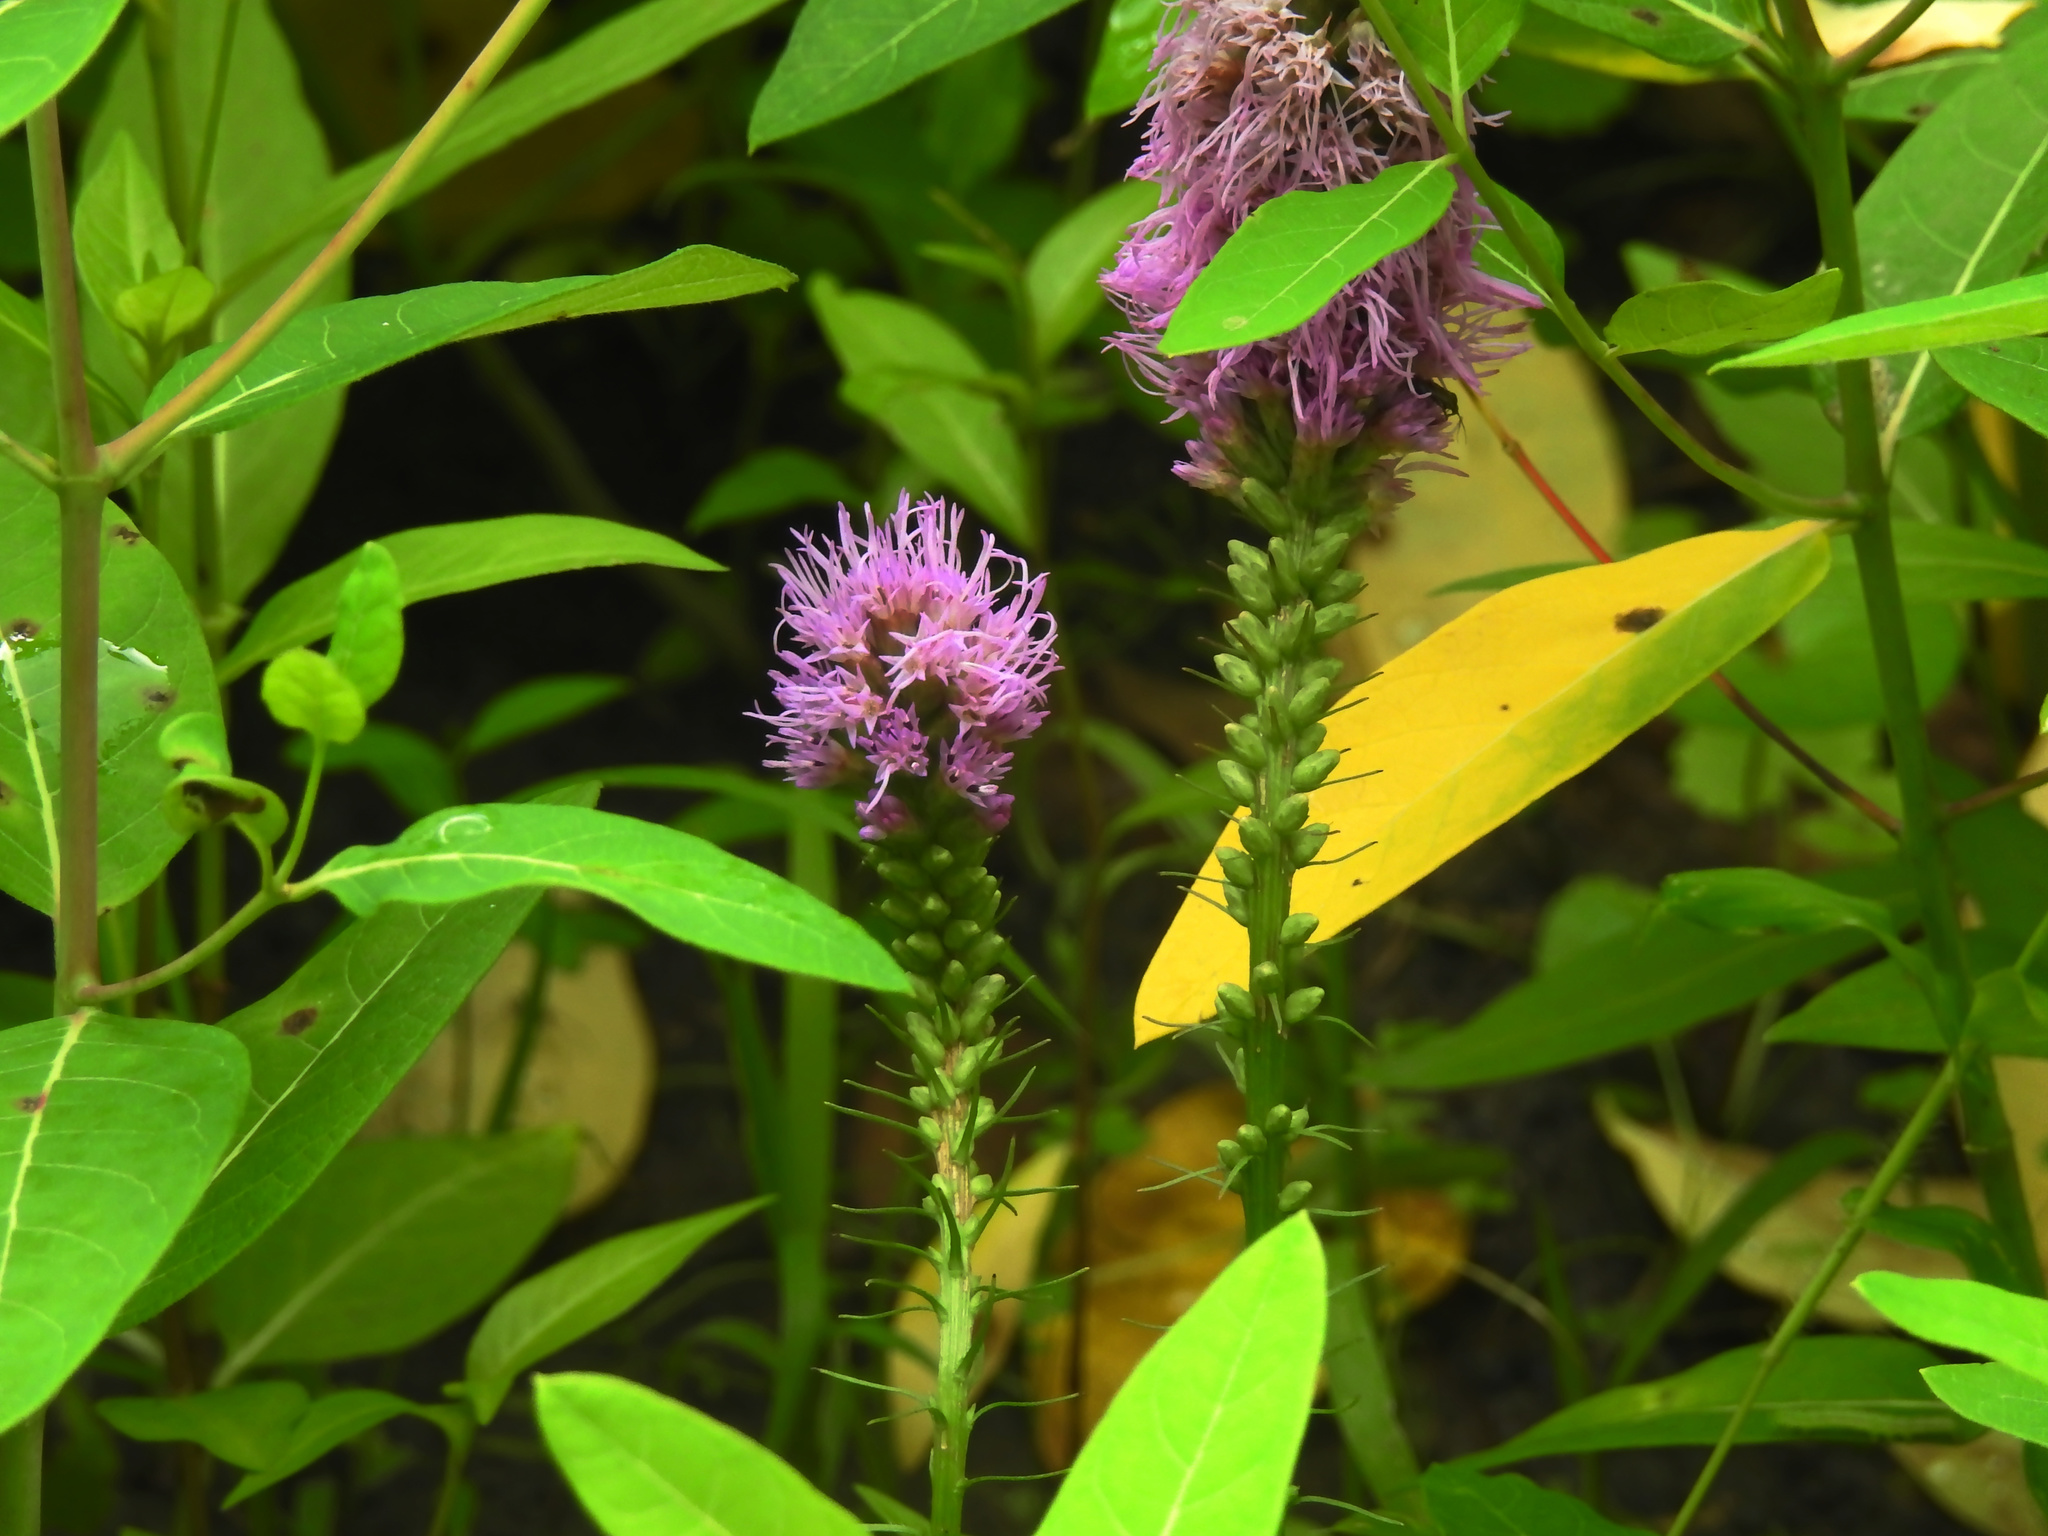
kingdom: Plantae
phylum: Tracheophyta
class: Magnoliopsida
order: Asterales
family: Asteraceae
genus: Liatris
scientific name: Liatris spicata
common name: Florist gayfeather
